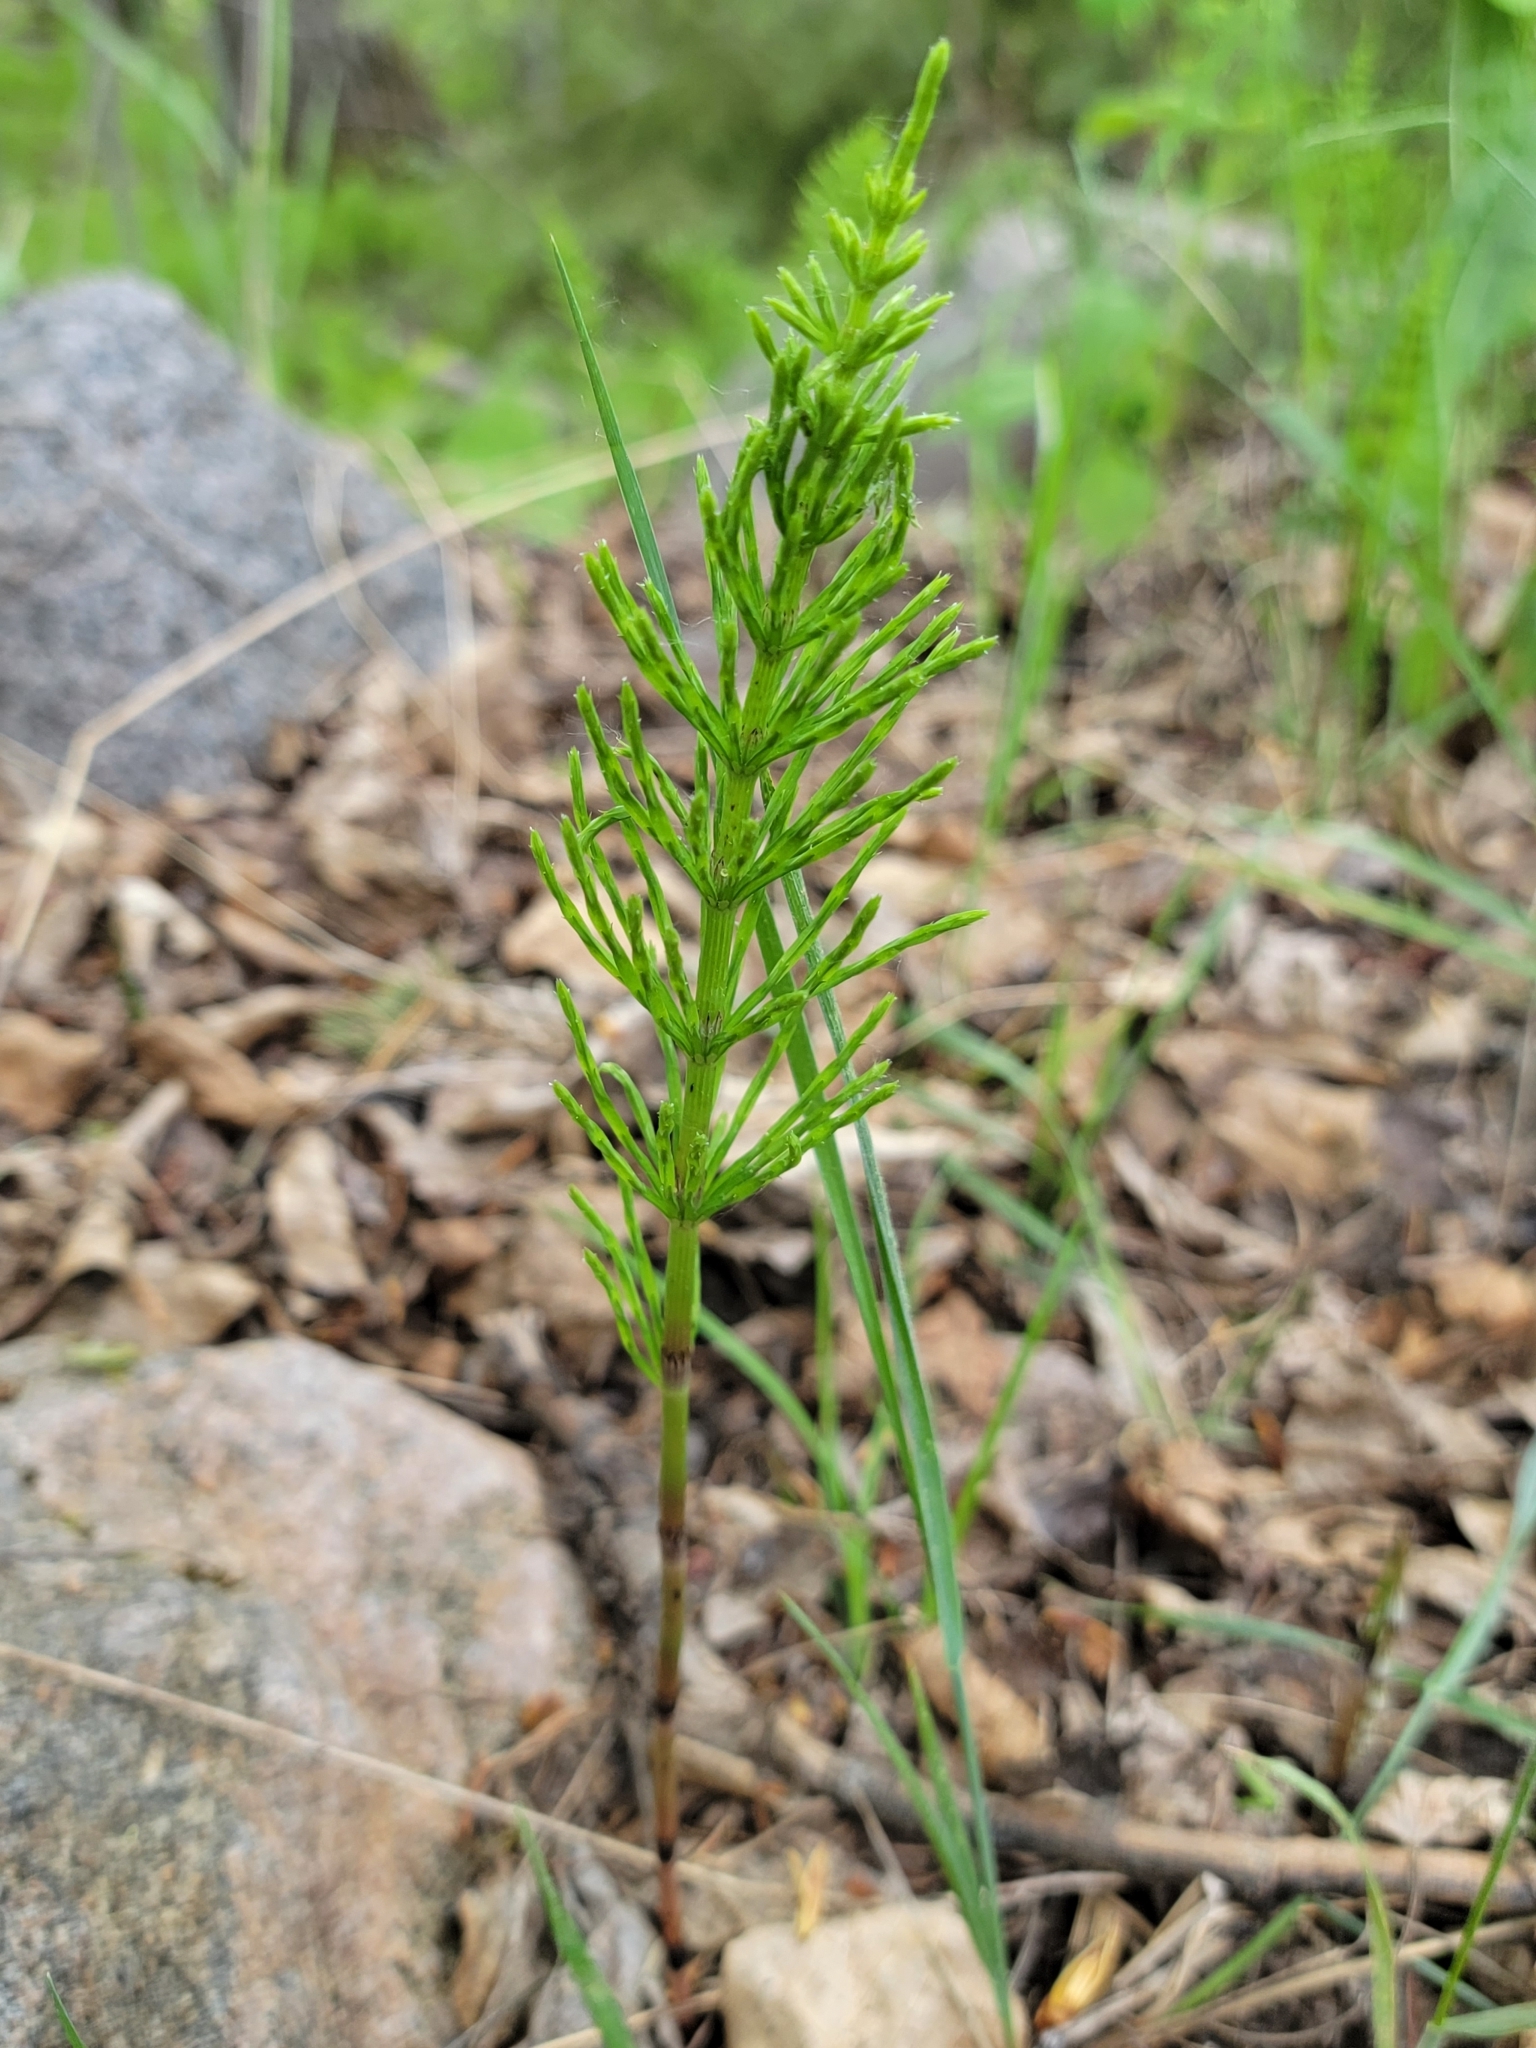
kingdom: Plantae
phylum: Tracheophyta
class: Polypodiopsida
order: Equisetales
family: Equisetaceae
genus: Equisetum
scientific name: Equisetum arvense
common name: Field horsetail
